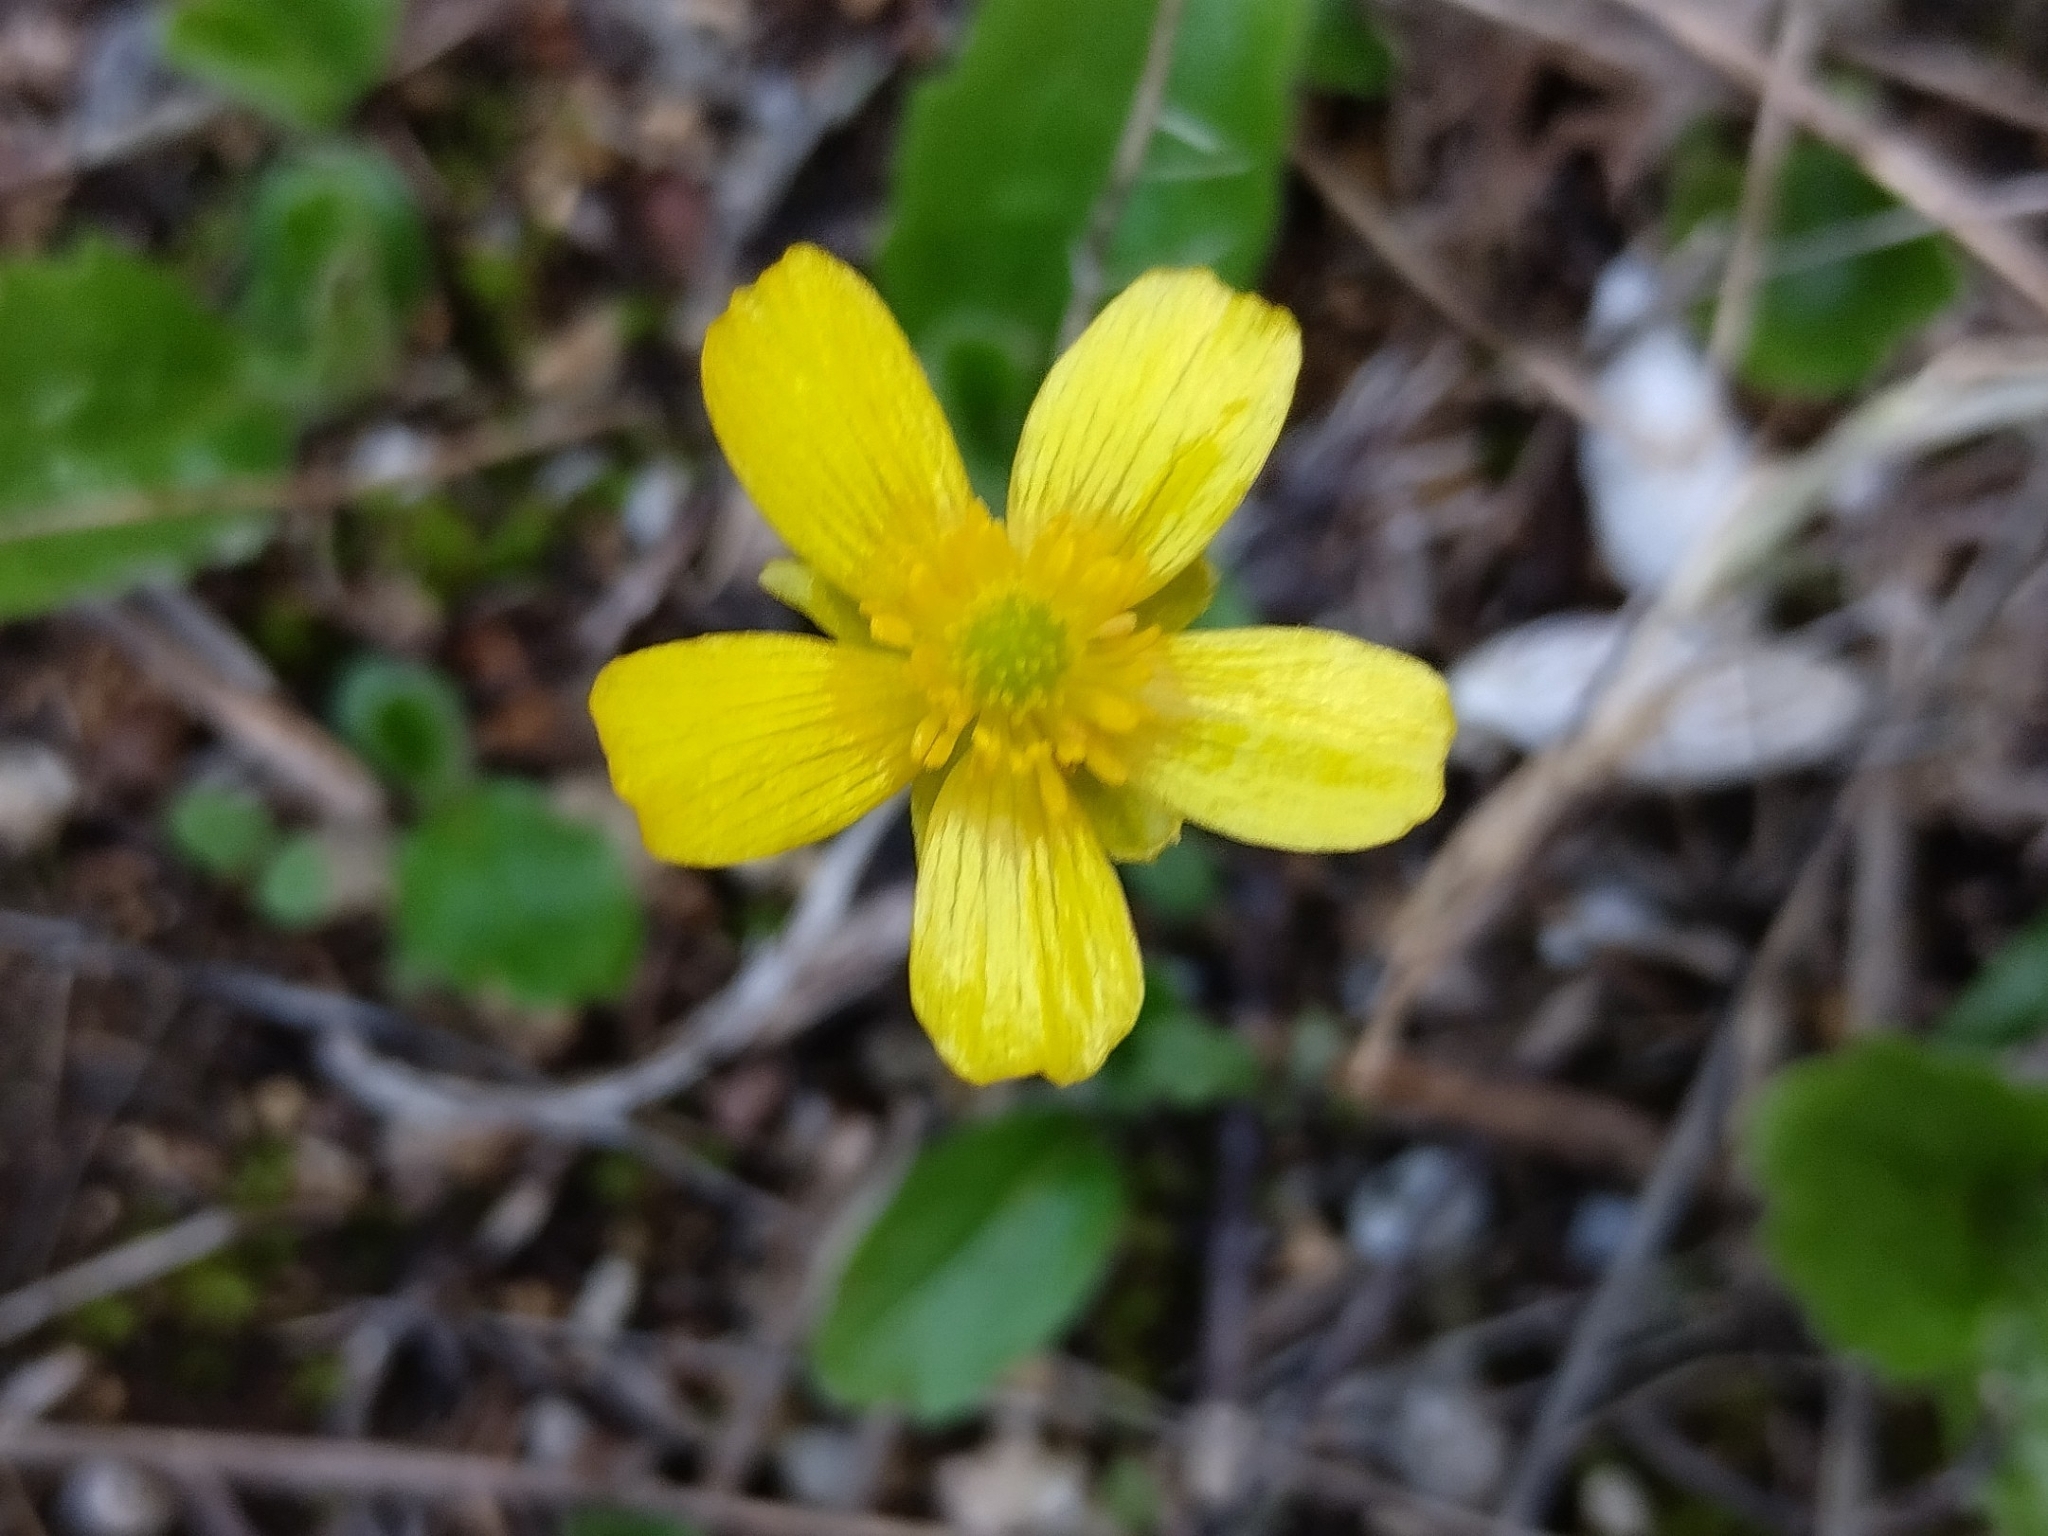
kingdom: Plantae
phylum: Tracheophyta
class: Magnoliopsida
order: Ranunculales
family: Ranunculaceae
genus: Ranunculus
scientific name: Ranunculus bullatus
